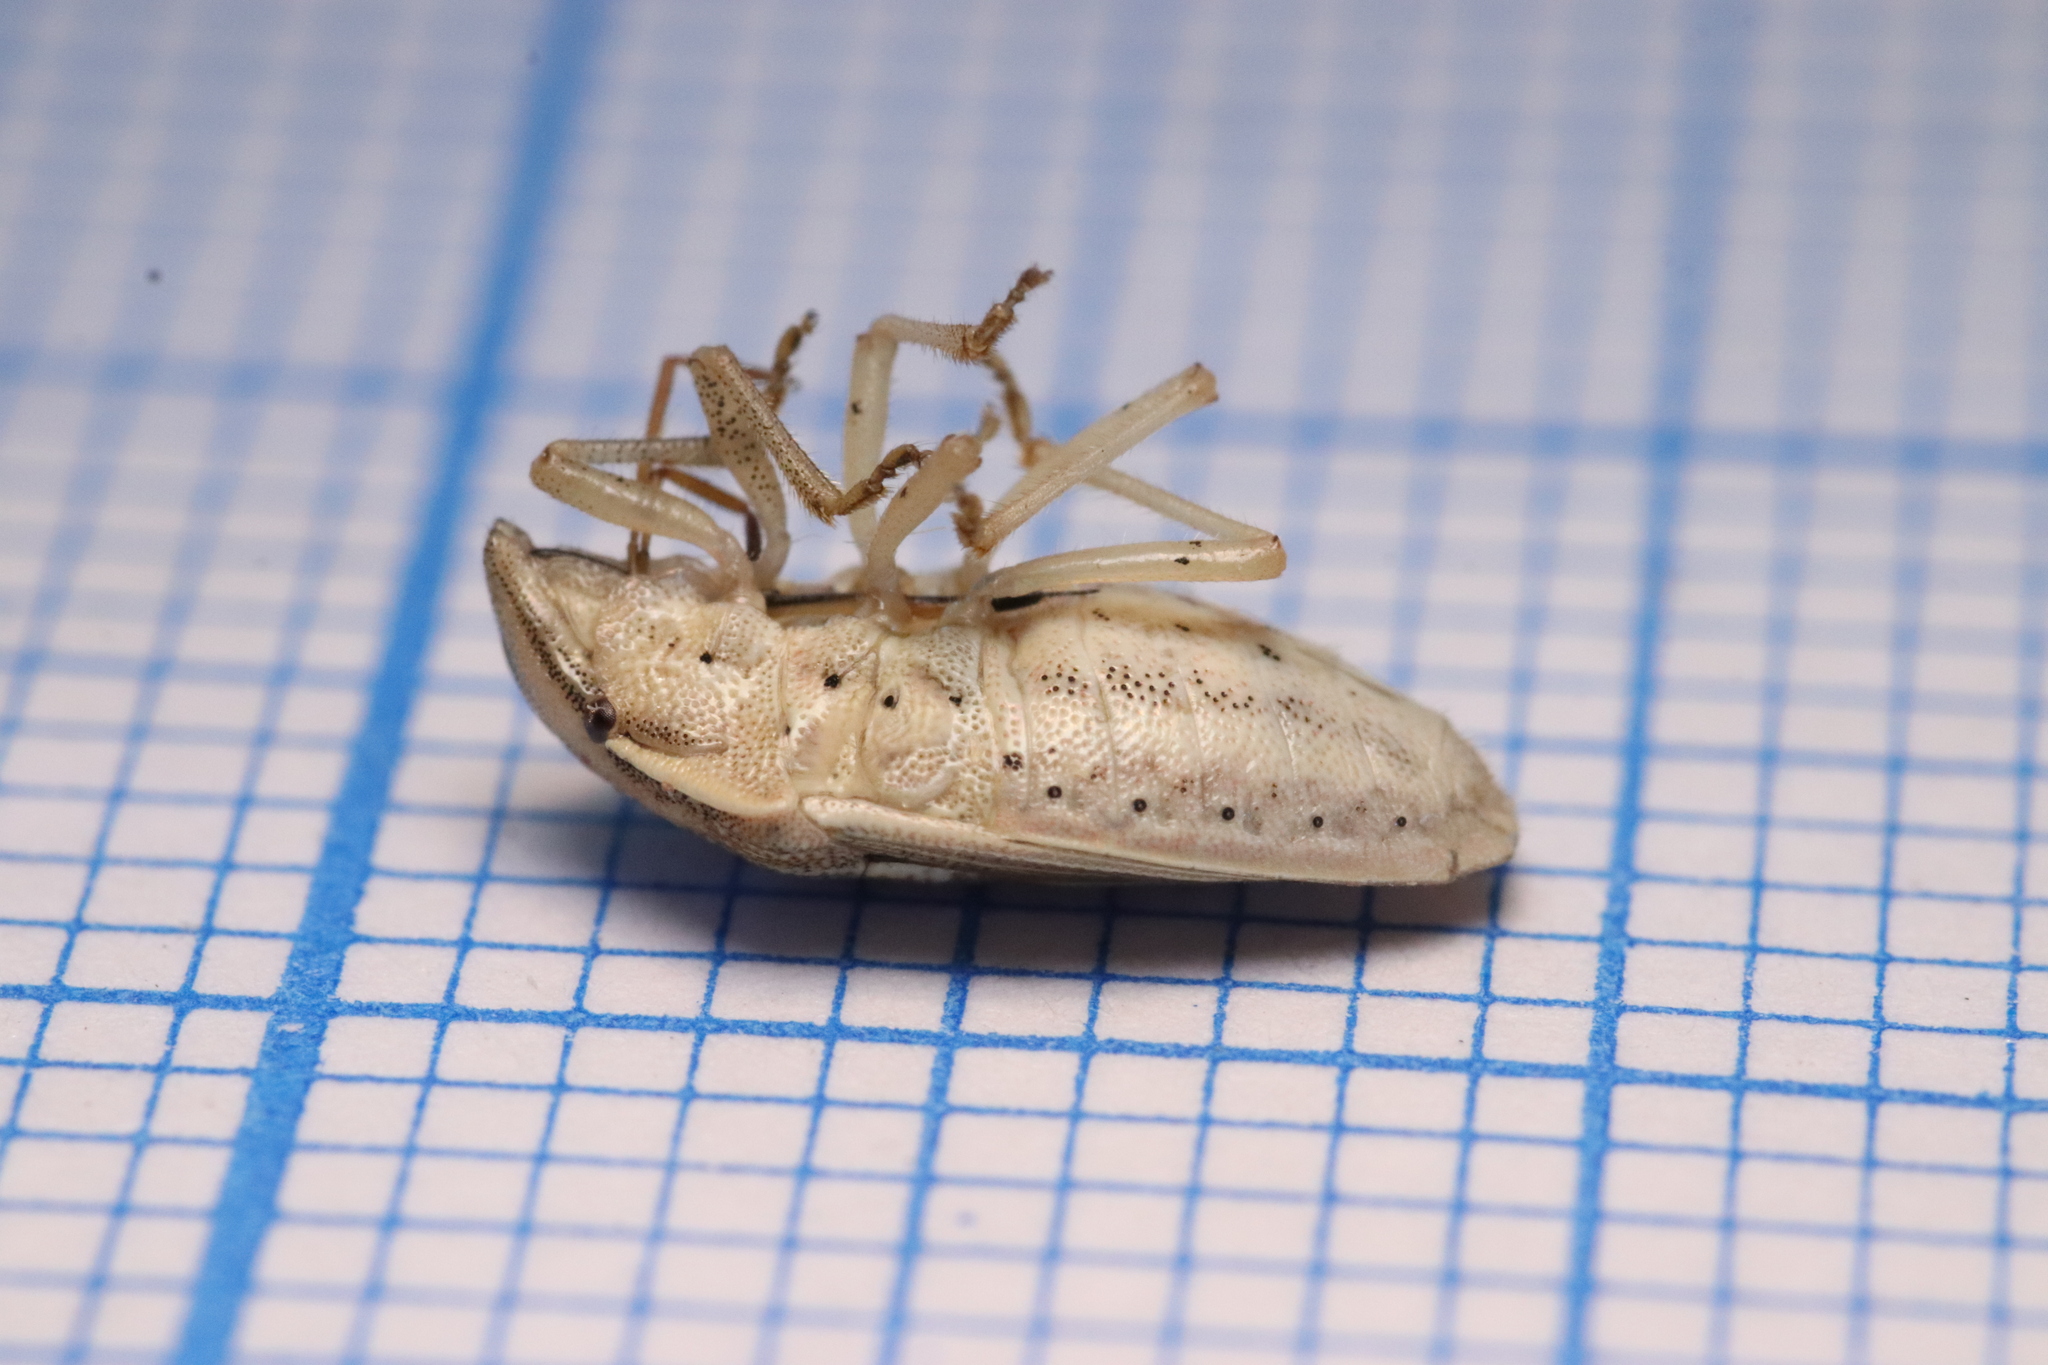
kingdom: Animalia
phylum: Arthropoda
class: Insecta
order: Hemiptera
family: Pentatomidae
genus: Aelia
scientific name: Aelia acuminata
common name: Bishop's mitre
